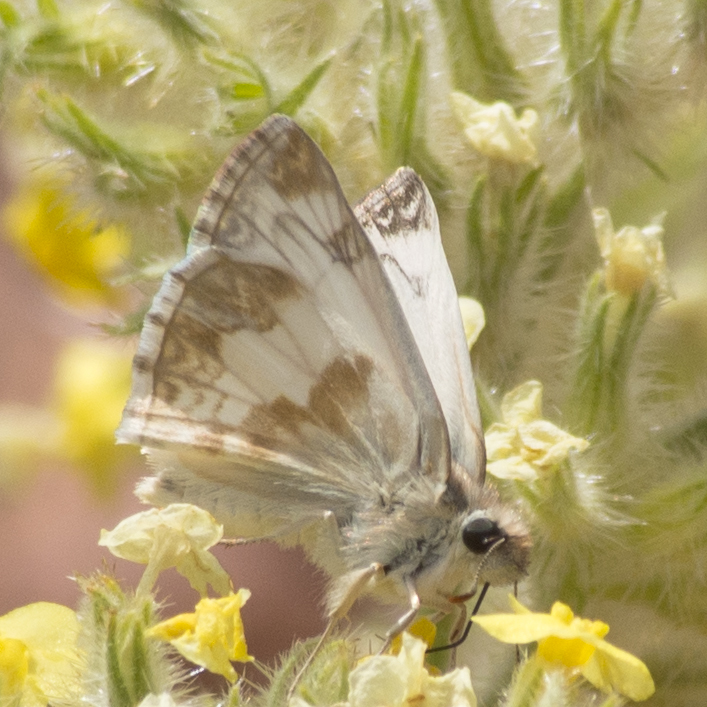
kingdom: Animalia
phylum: Arthropoda
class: Insecta
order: Lepidoptera
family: Hesperiidae
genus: Heliopetes
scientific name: Heliopetes ericetorum
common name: Northern white-skipper
